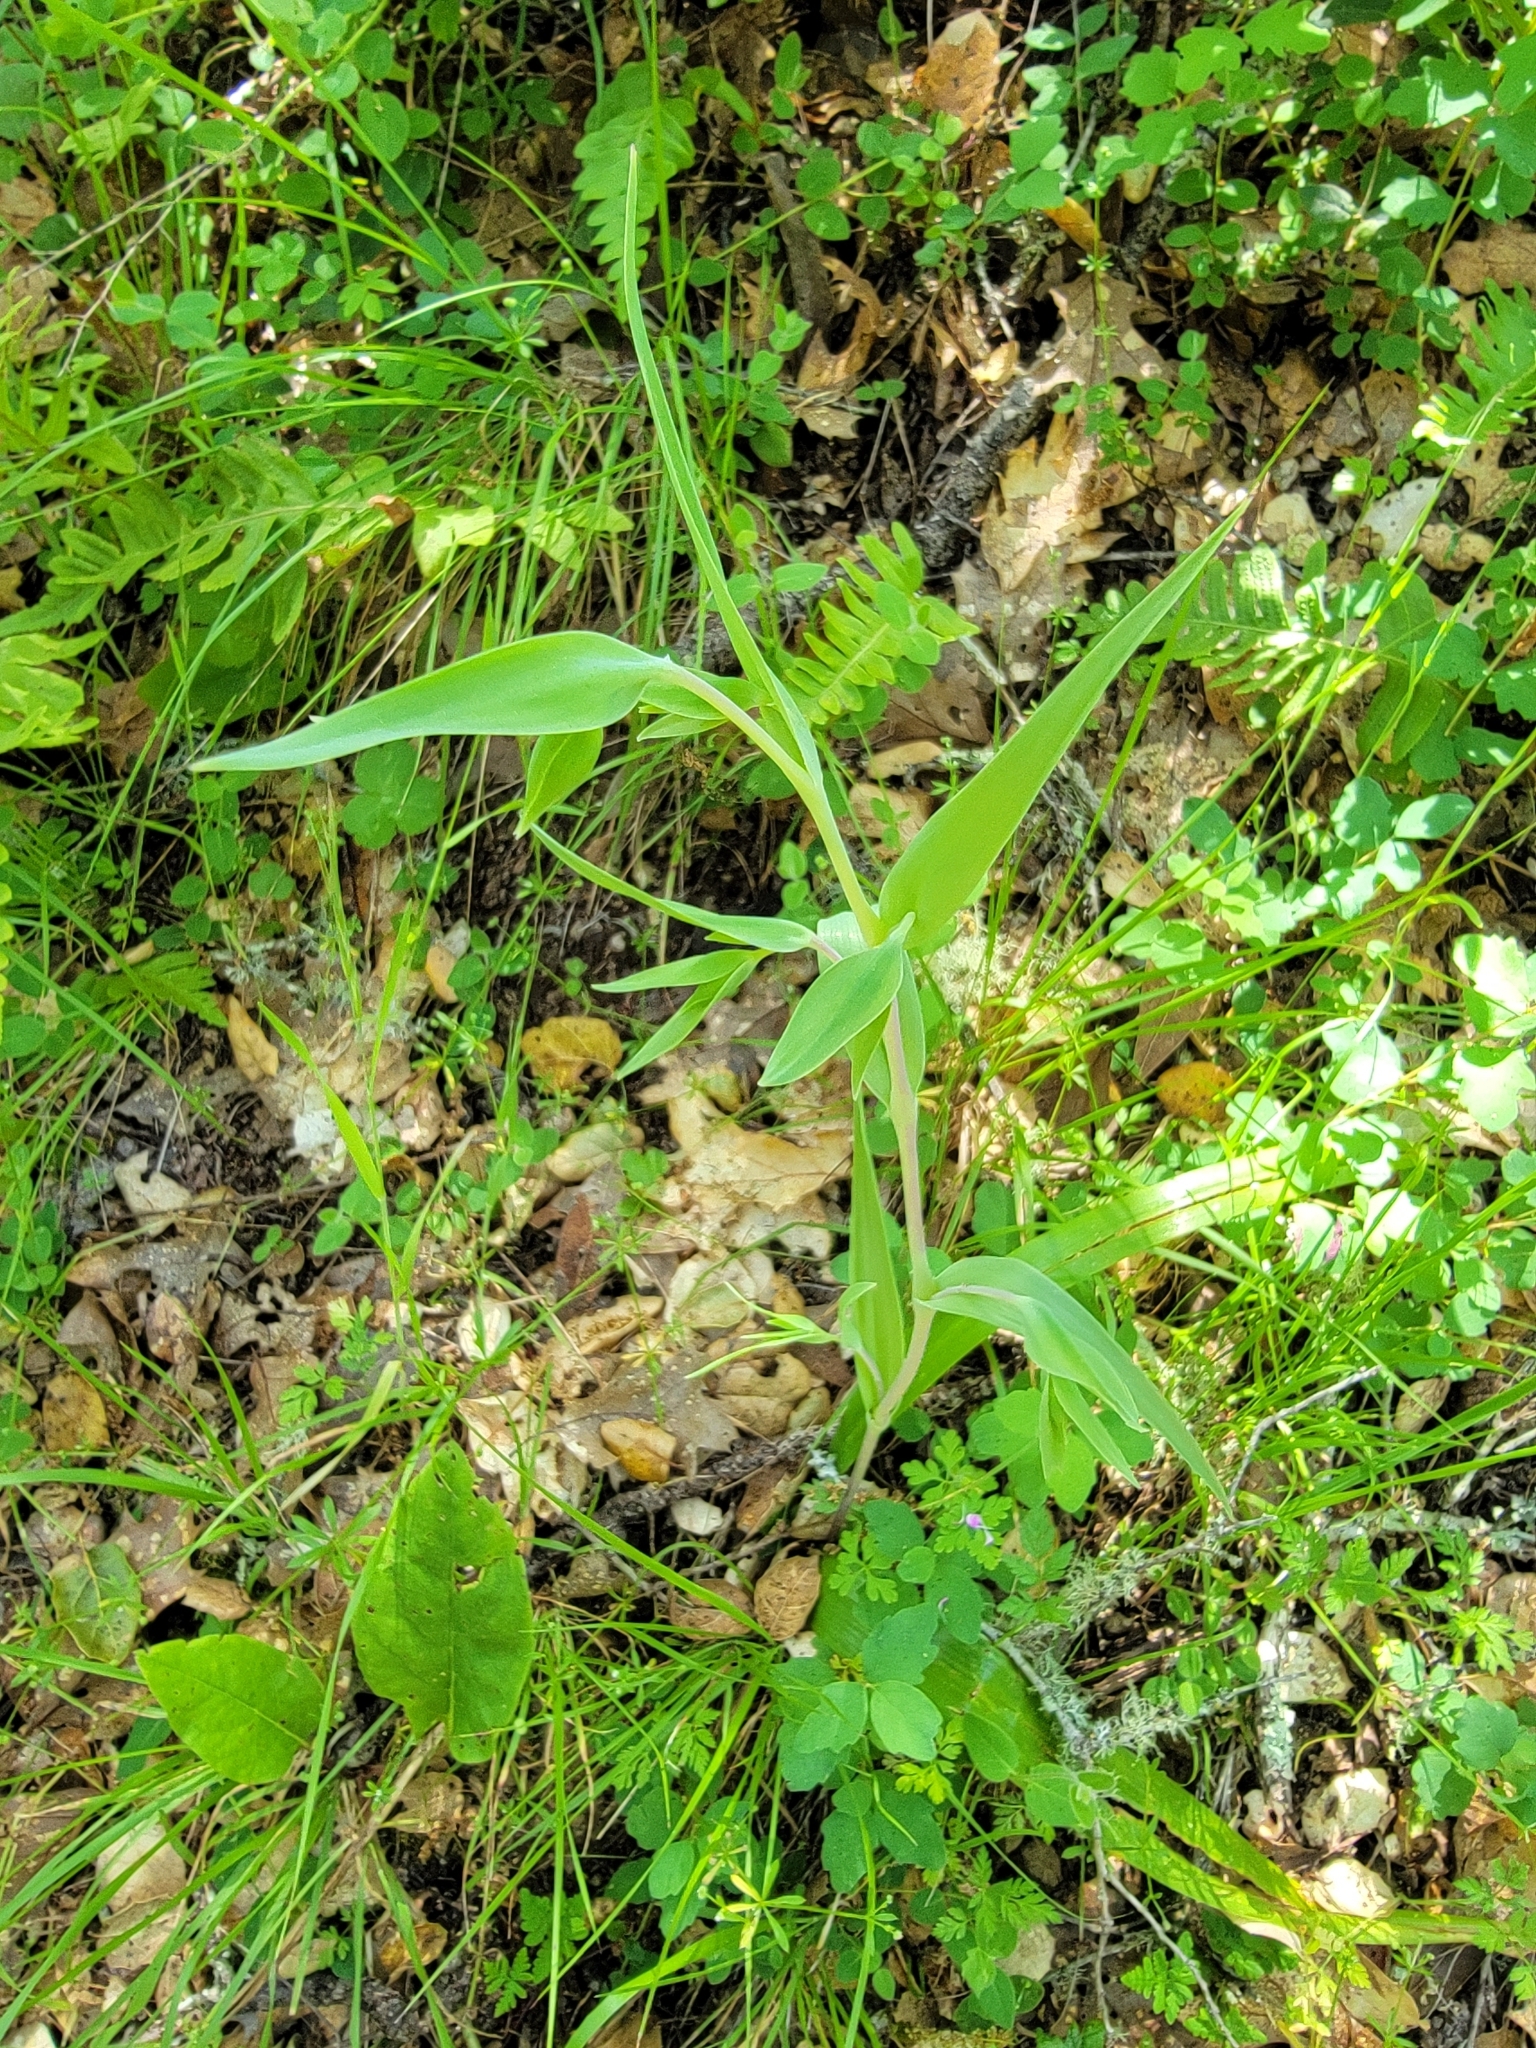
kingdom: Plantae
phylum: Tracheophyta
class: Liliopsida
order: Liliales
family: Liliaceae
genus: Calochortus
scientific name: Calochortus albus
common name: Fairy-lantern
